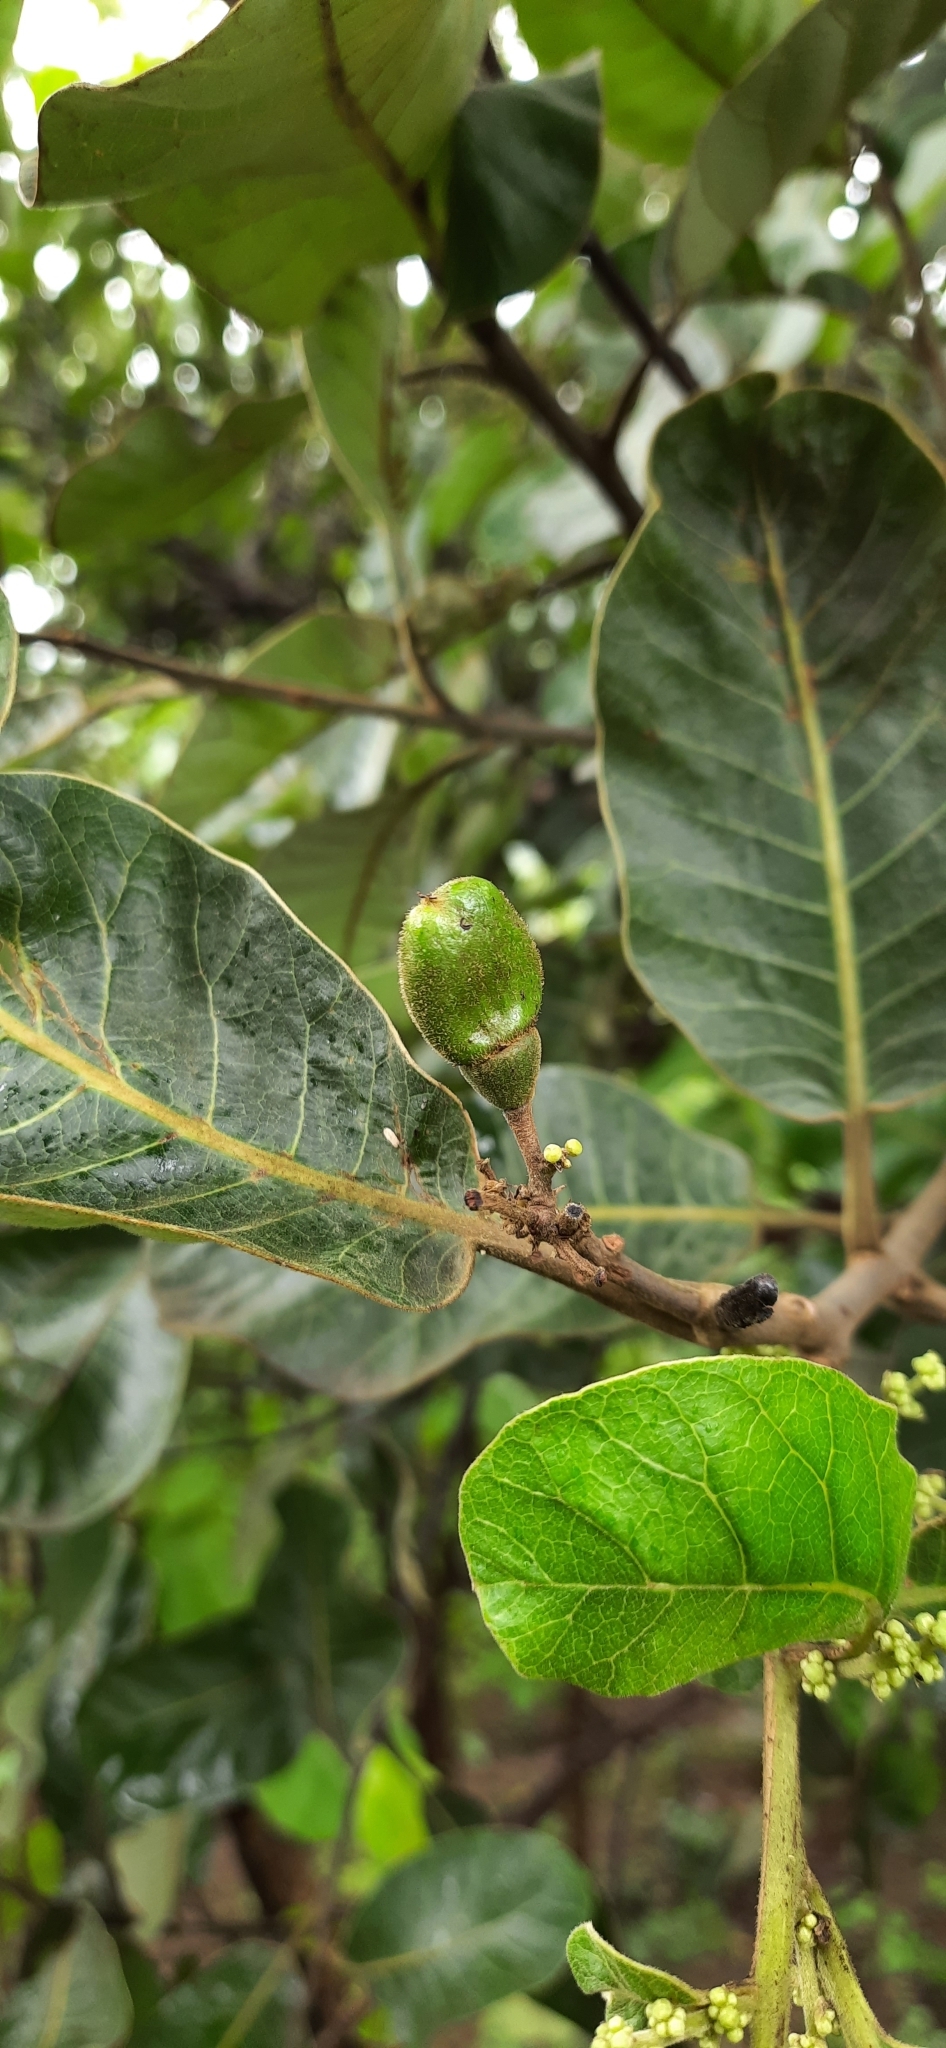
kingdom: Plantae
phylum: Tracheophyta
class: Magnoliopsida
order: Sapindales
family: Anacardiaceae
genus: Semecarpus
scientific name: Semecarpus anacardium
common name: Marking nut-tree
